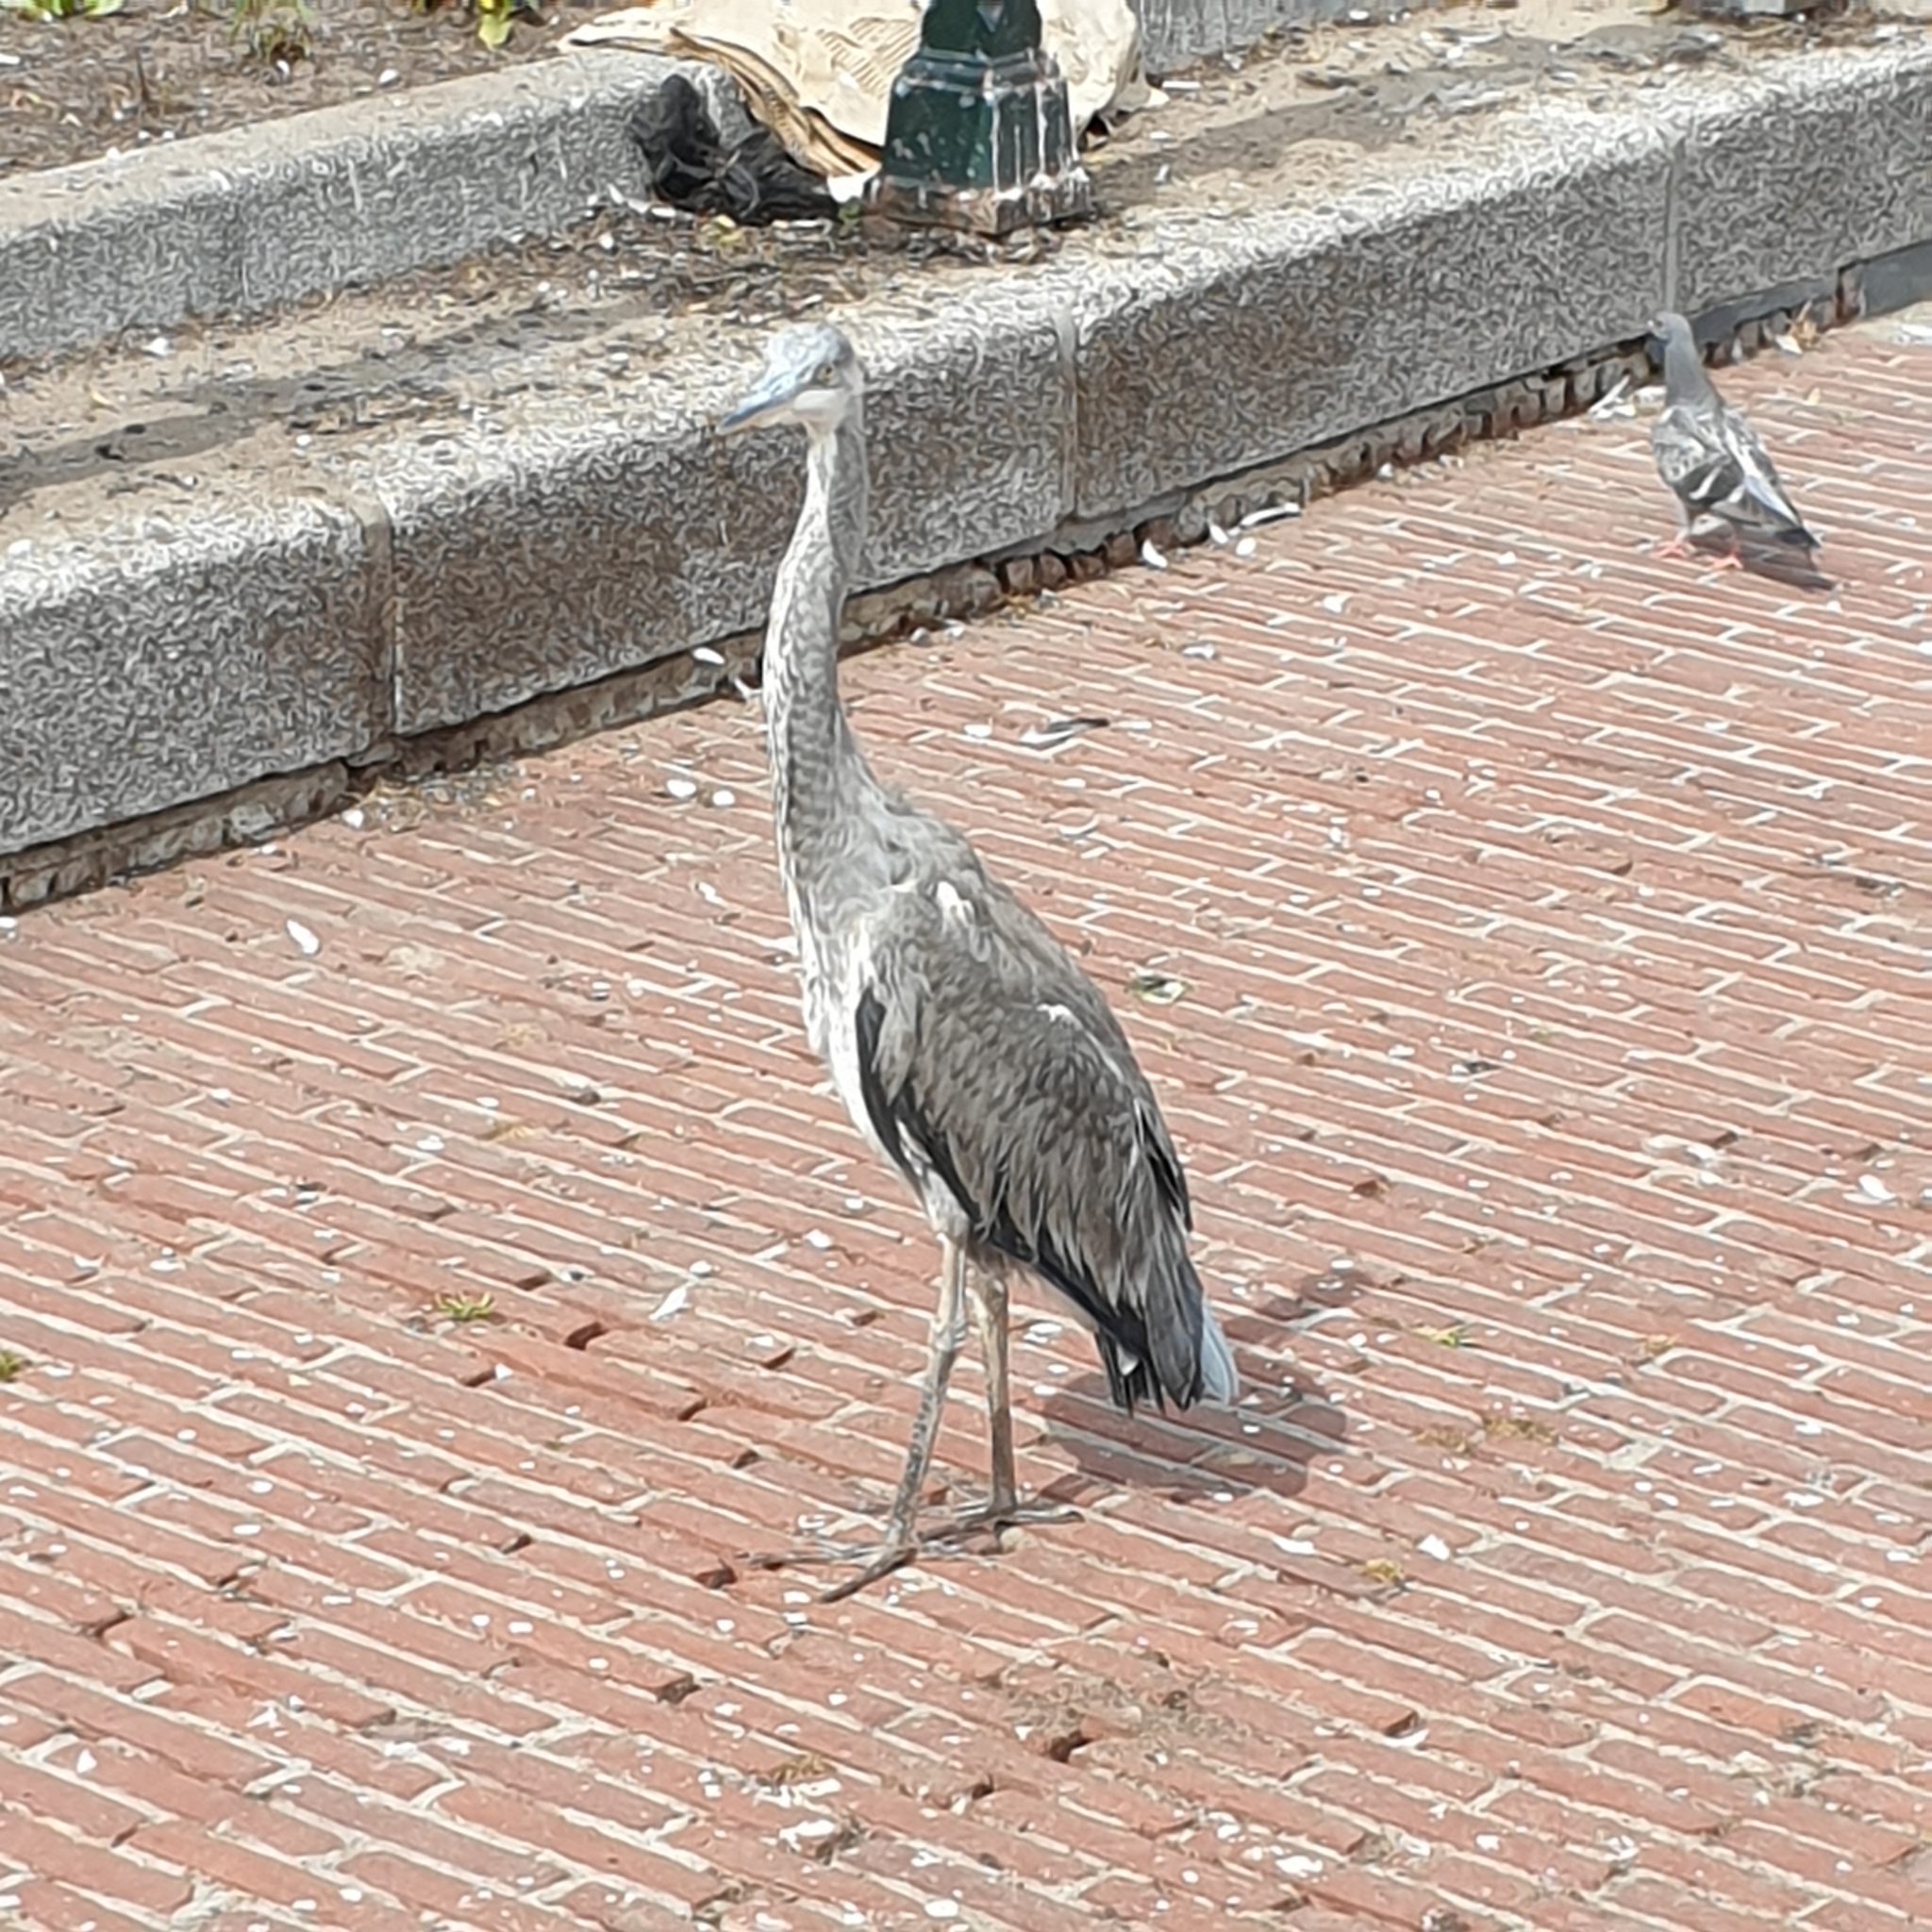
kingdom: Animalia
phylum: Chordata
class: Aves
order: Pelecaniformes
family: Ardeidae
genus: Ardea
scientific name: Ardea cinerea
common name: Grey heron
